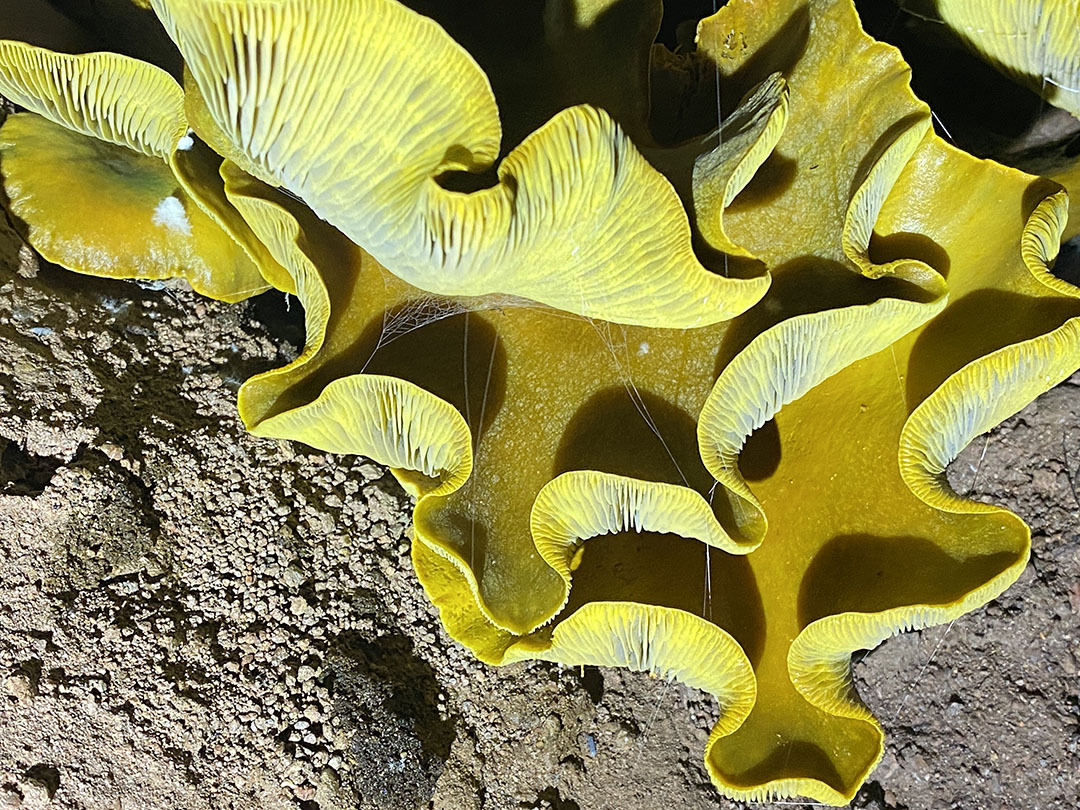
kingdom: Fungi
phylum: Basidiomycota
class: Agaricomycetes
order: Agaricales
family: Omphalotaceae
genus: Omphalotus
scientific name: Omphalotus olivascens
